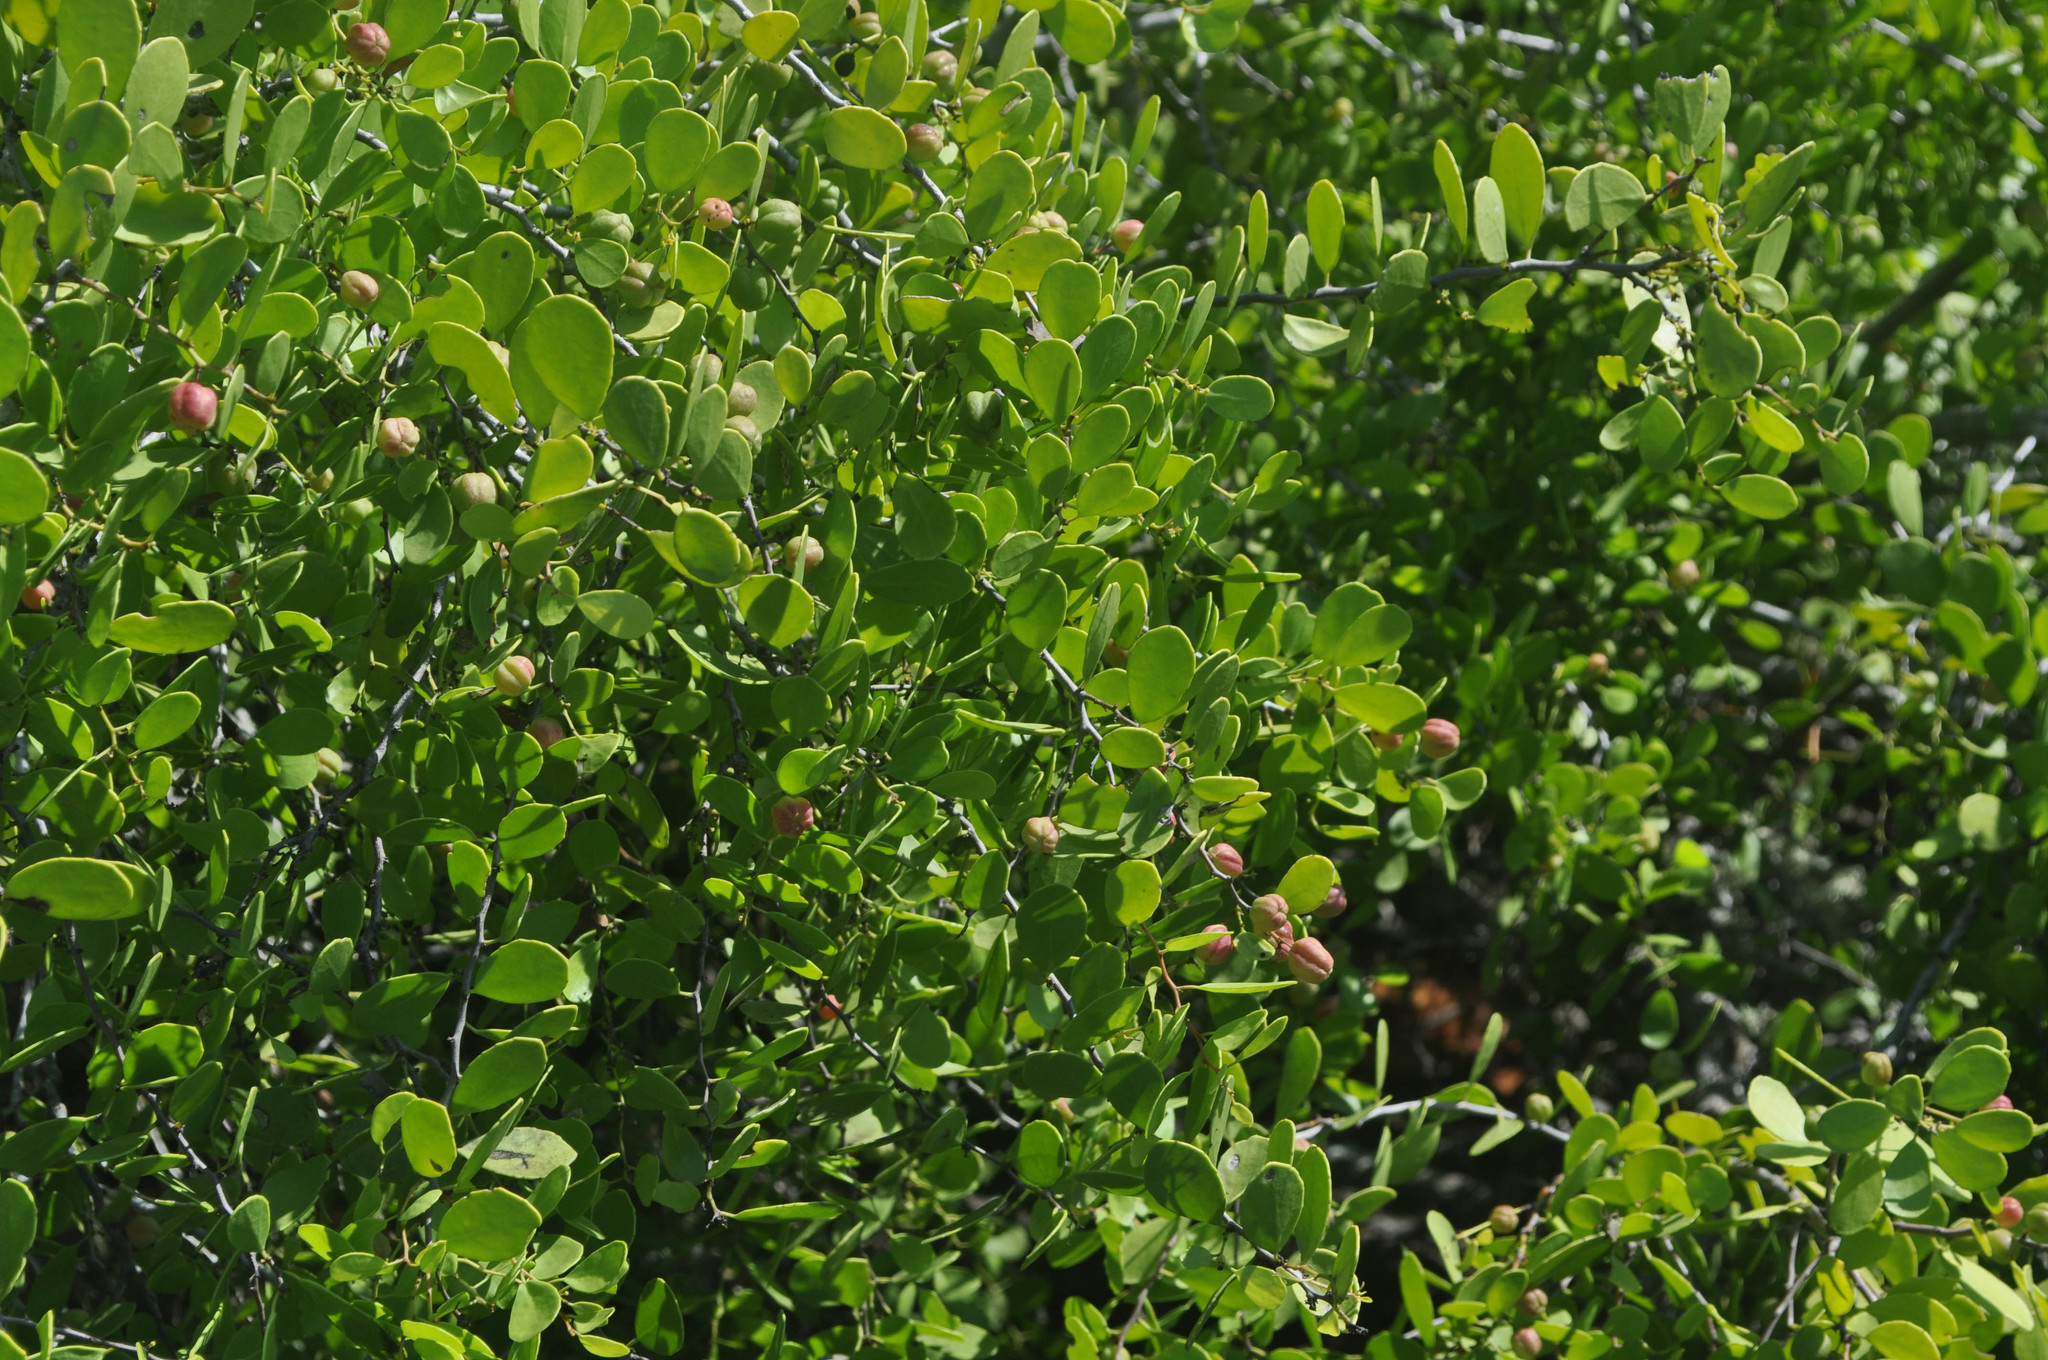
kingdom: Plantae
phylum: Tracheophyta
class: Magnoliopsida
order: Celastrales
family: Celastraceae
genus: Tricerma
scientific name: Tricerma octogonum
